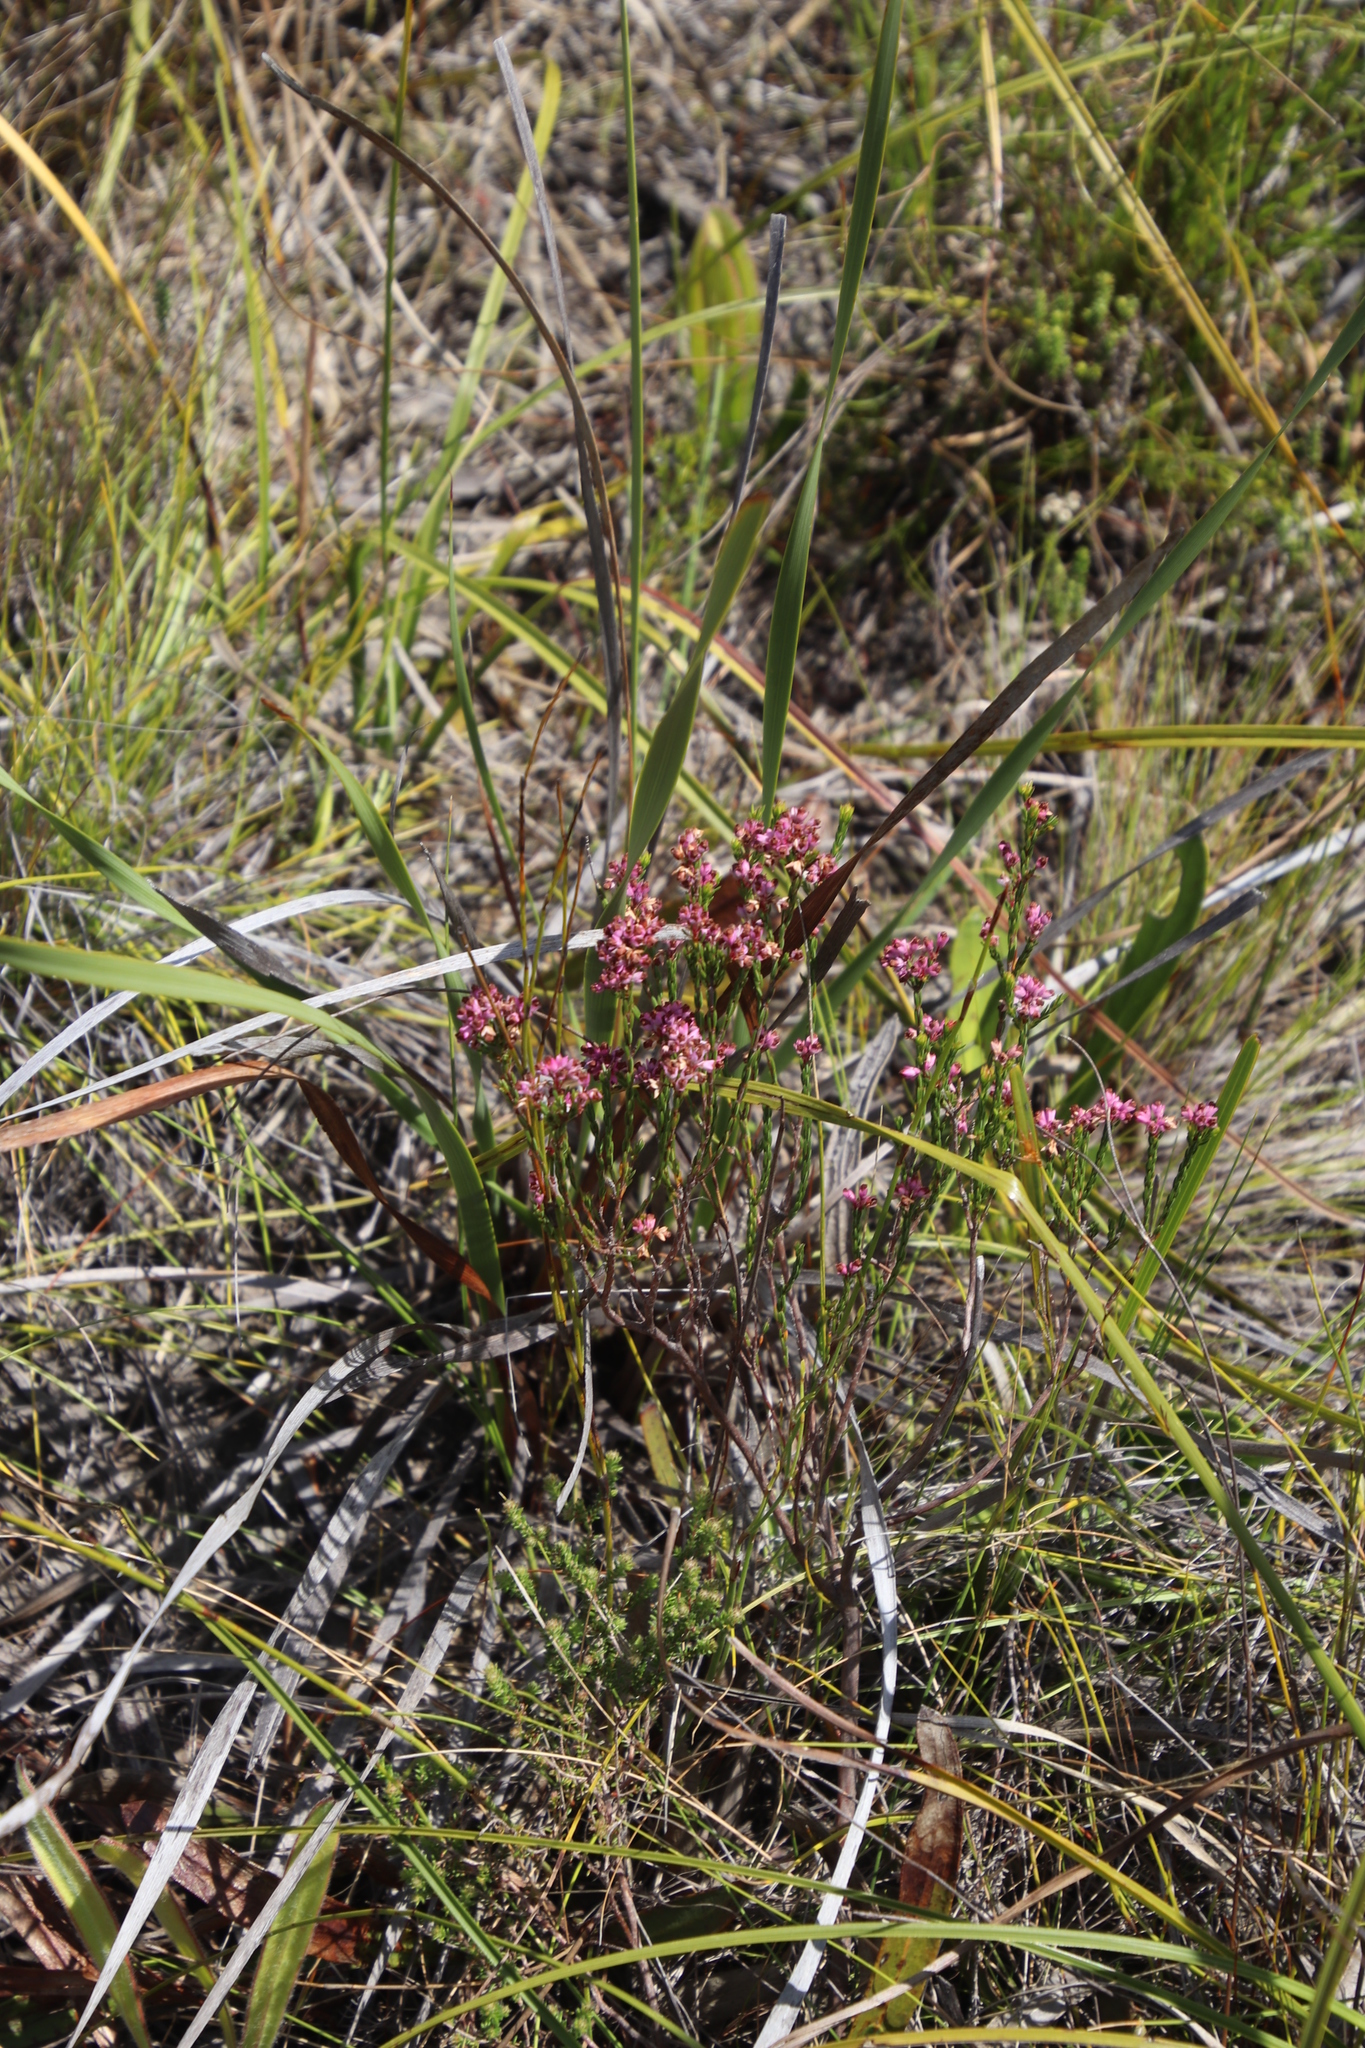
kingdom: Plantae
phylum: Tracheophyta
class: Magnoliopsida
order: Ericales
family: Ericaceae
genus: Erica
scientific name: Erica corifolia
